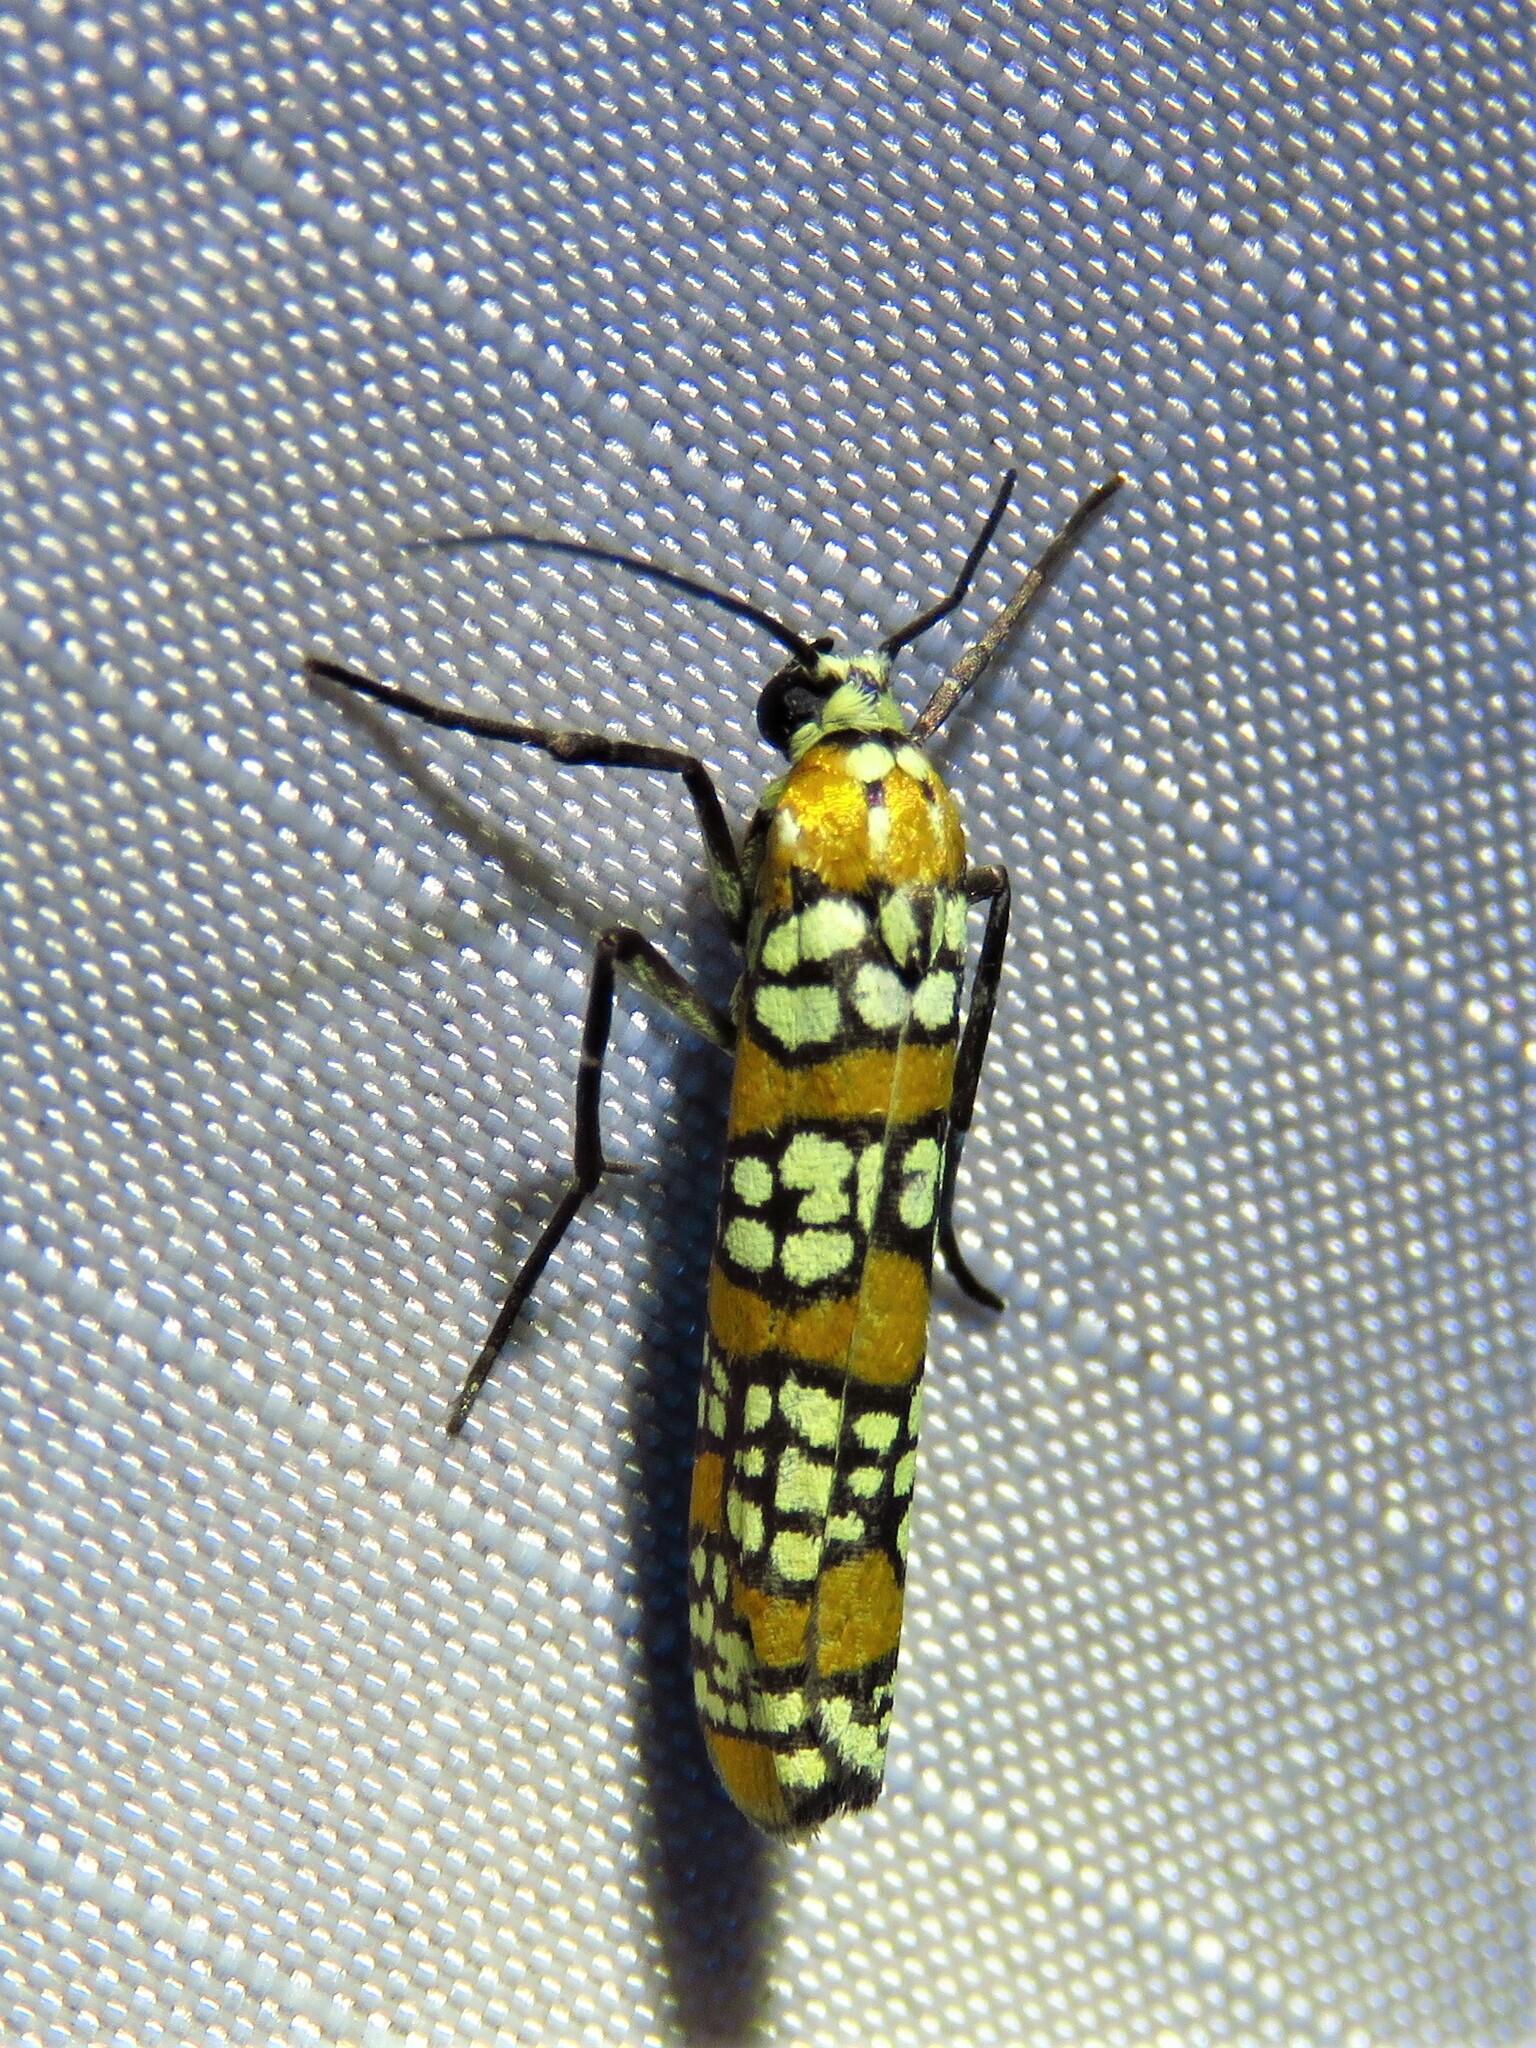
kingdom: Animalia
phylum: Arthropoda
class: Insecta
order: Lepidoptera
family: Attevidae
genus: Atteva
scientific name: Atteva punctella
